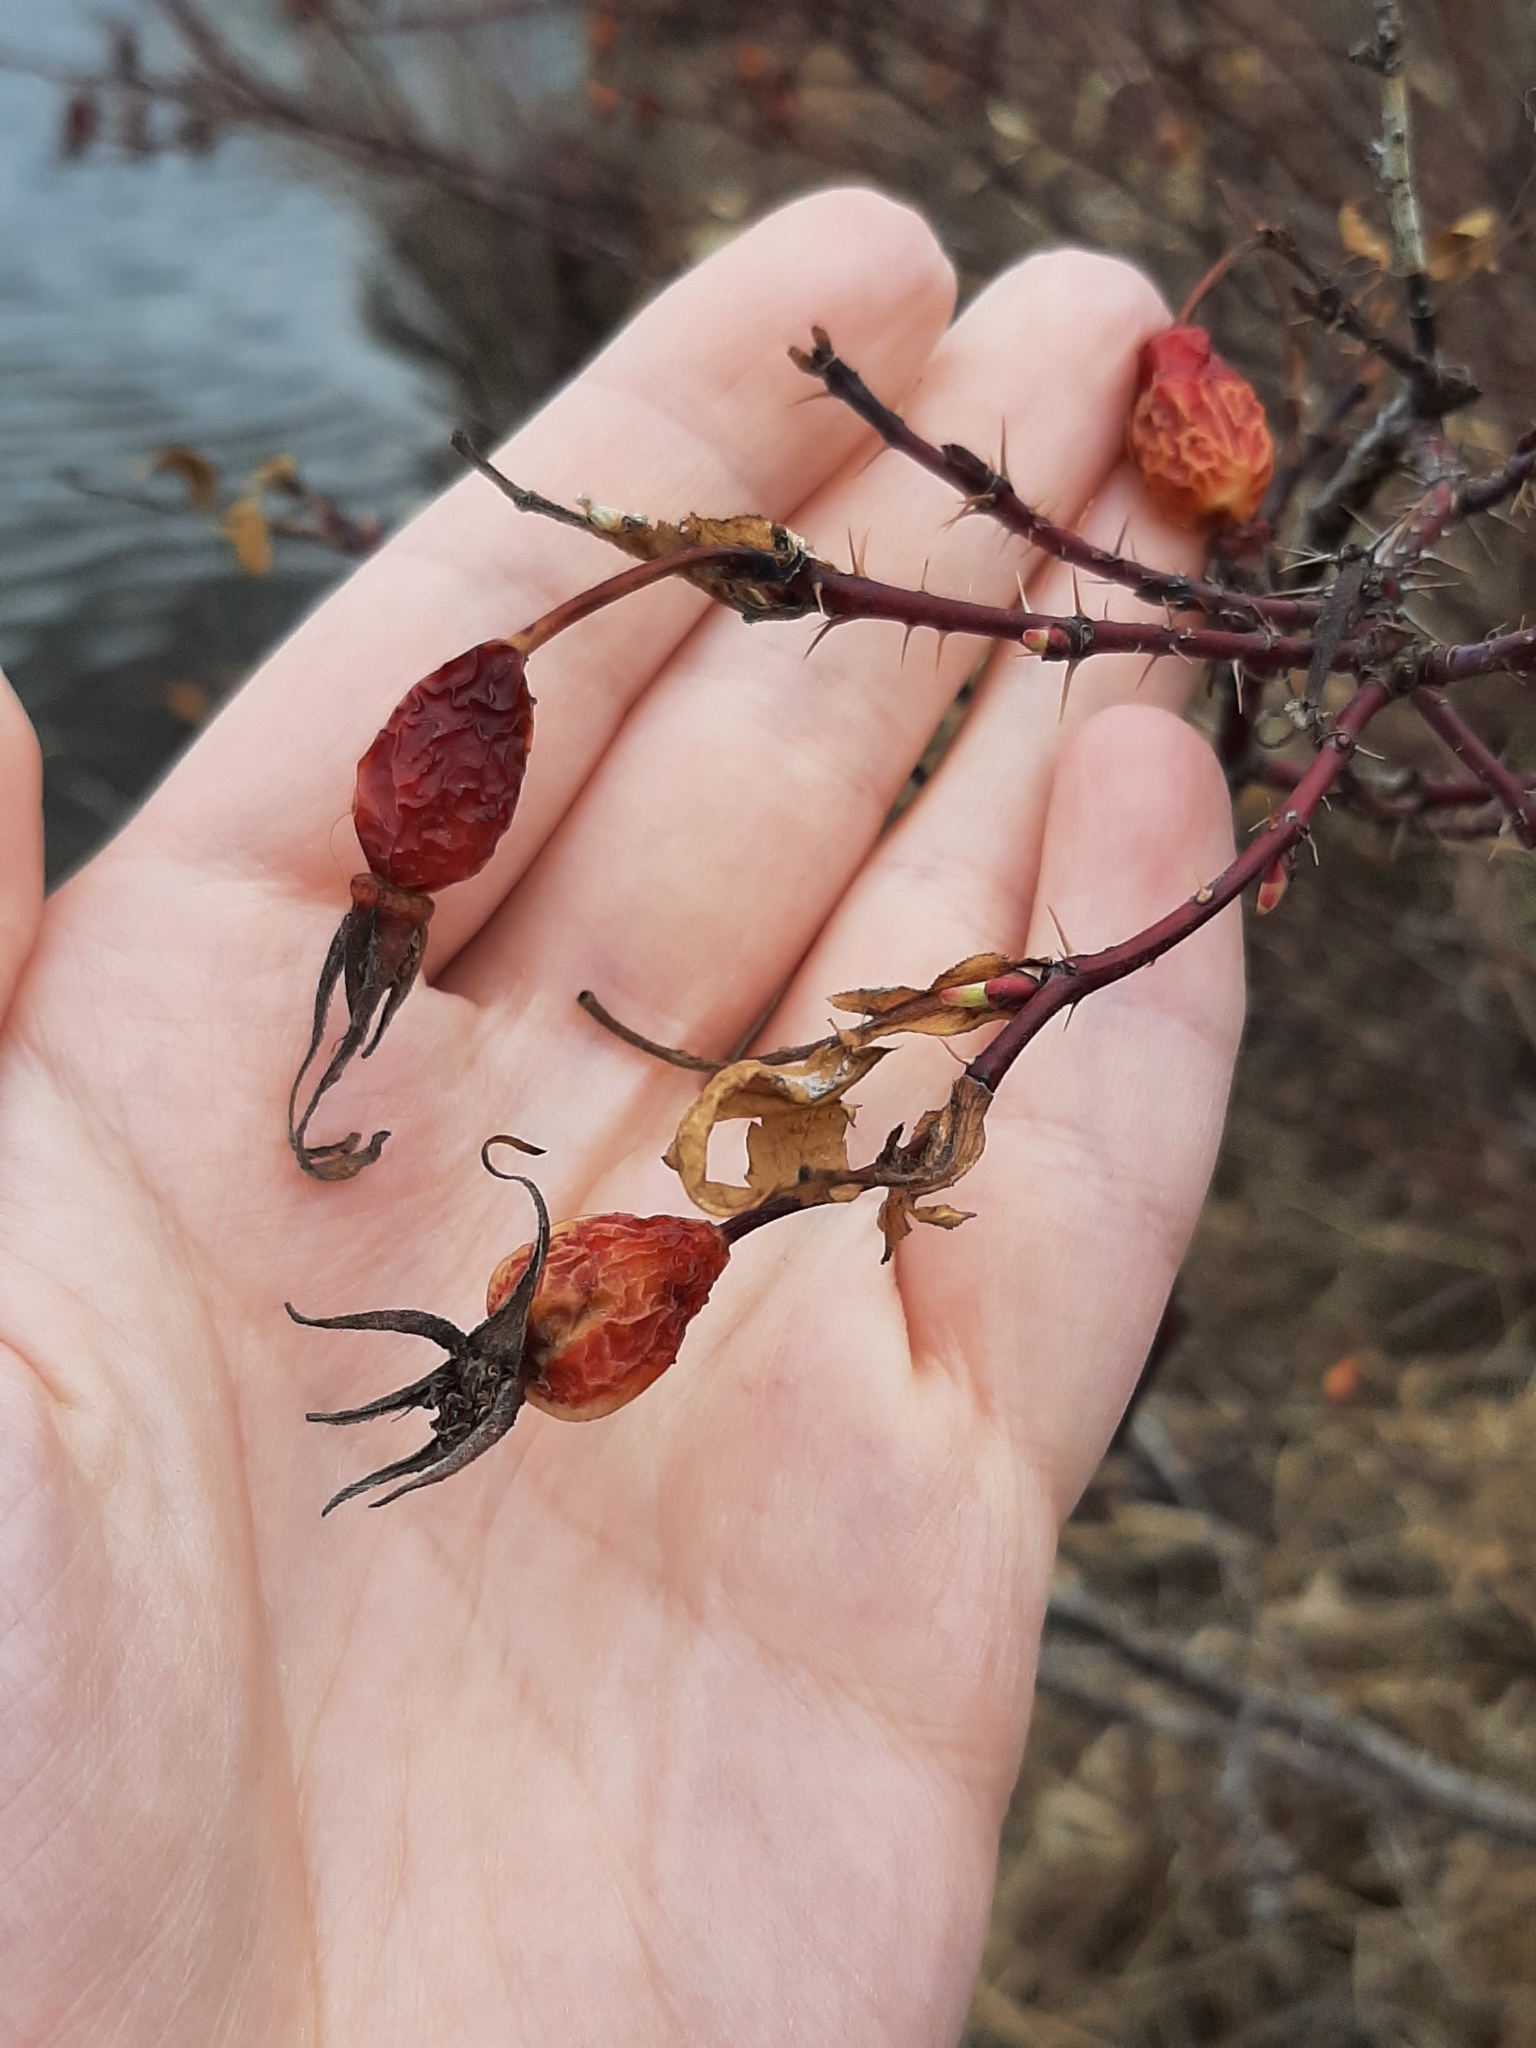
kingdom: Plantae
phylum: Tracheophyta
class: Magnoliopsida
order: Rosales
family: Rosaceae
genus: Rosa
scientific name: Rosa acicularis
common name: Prickly rose
